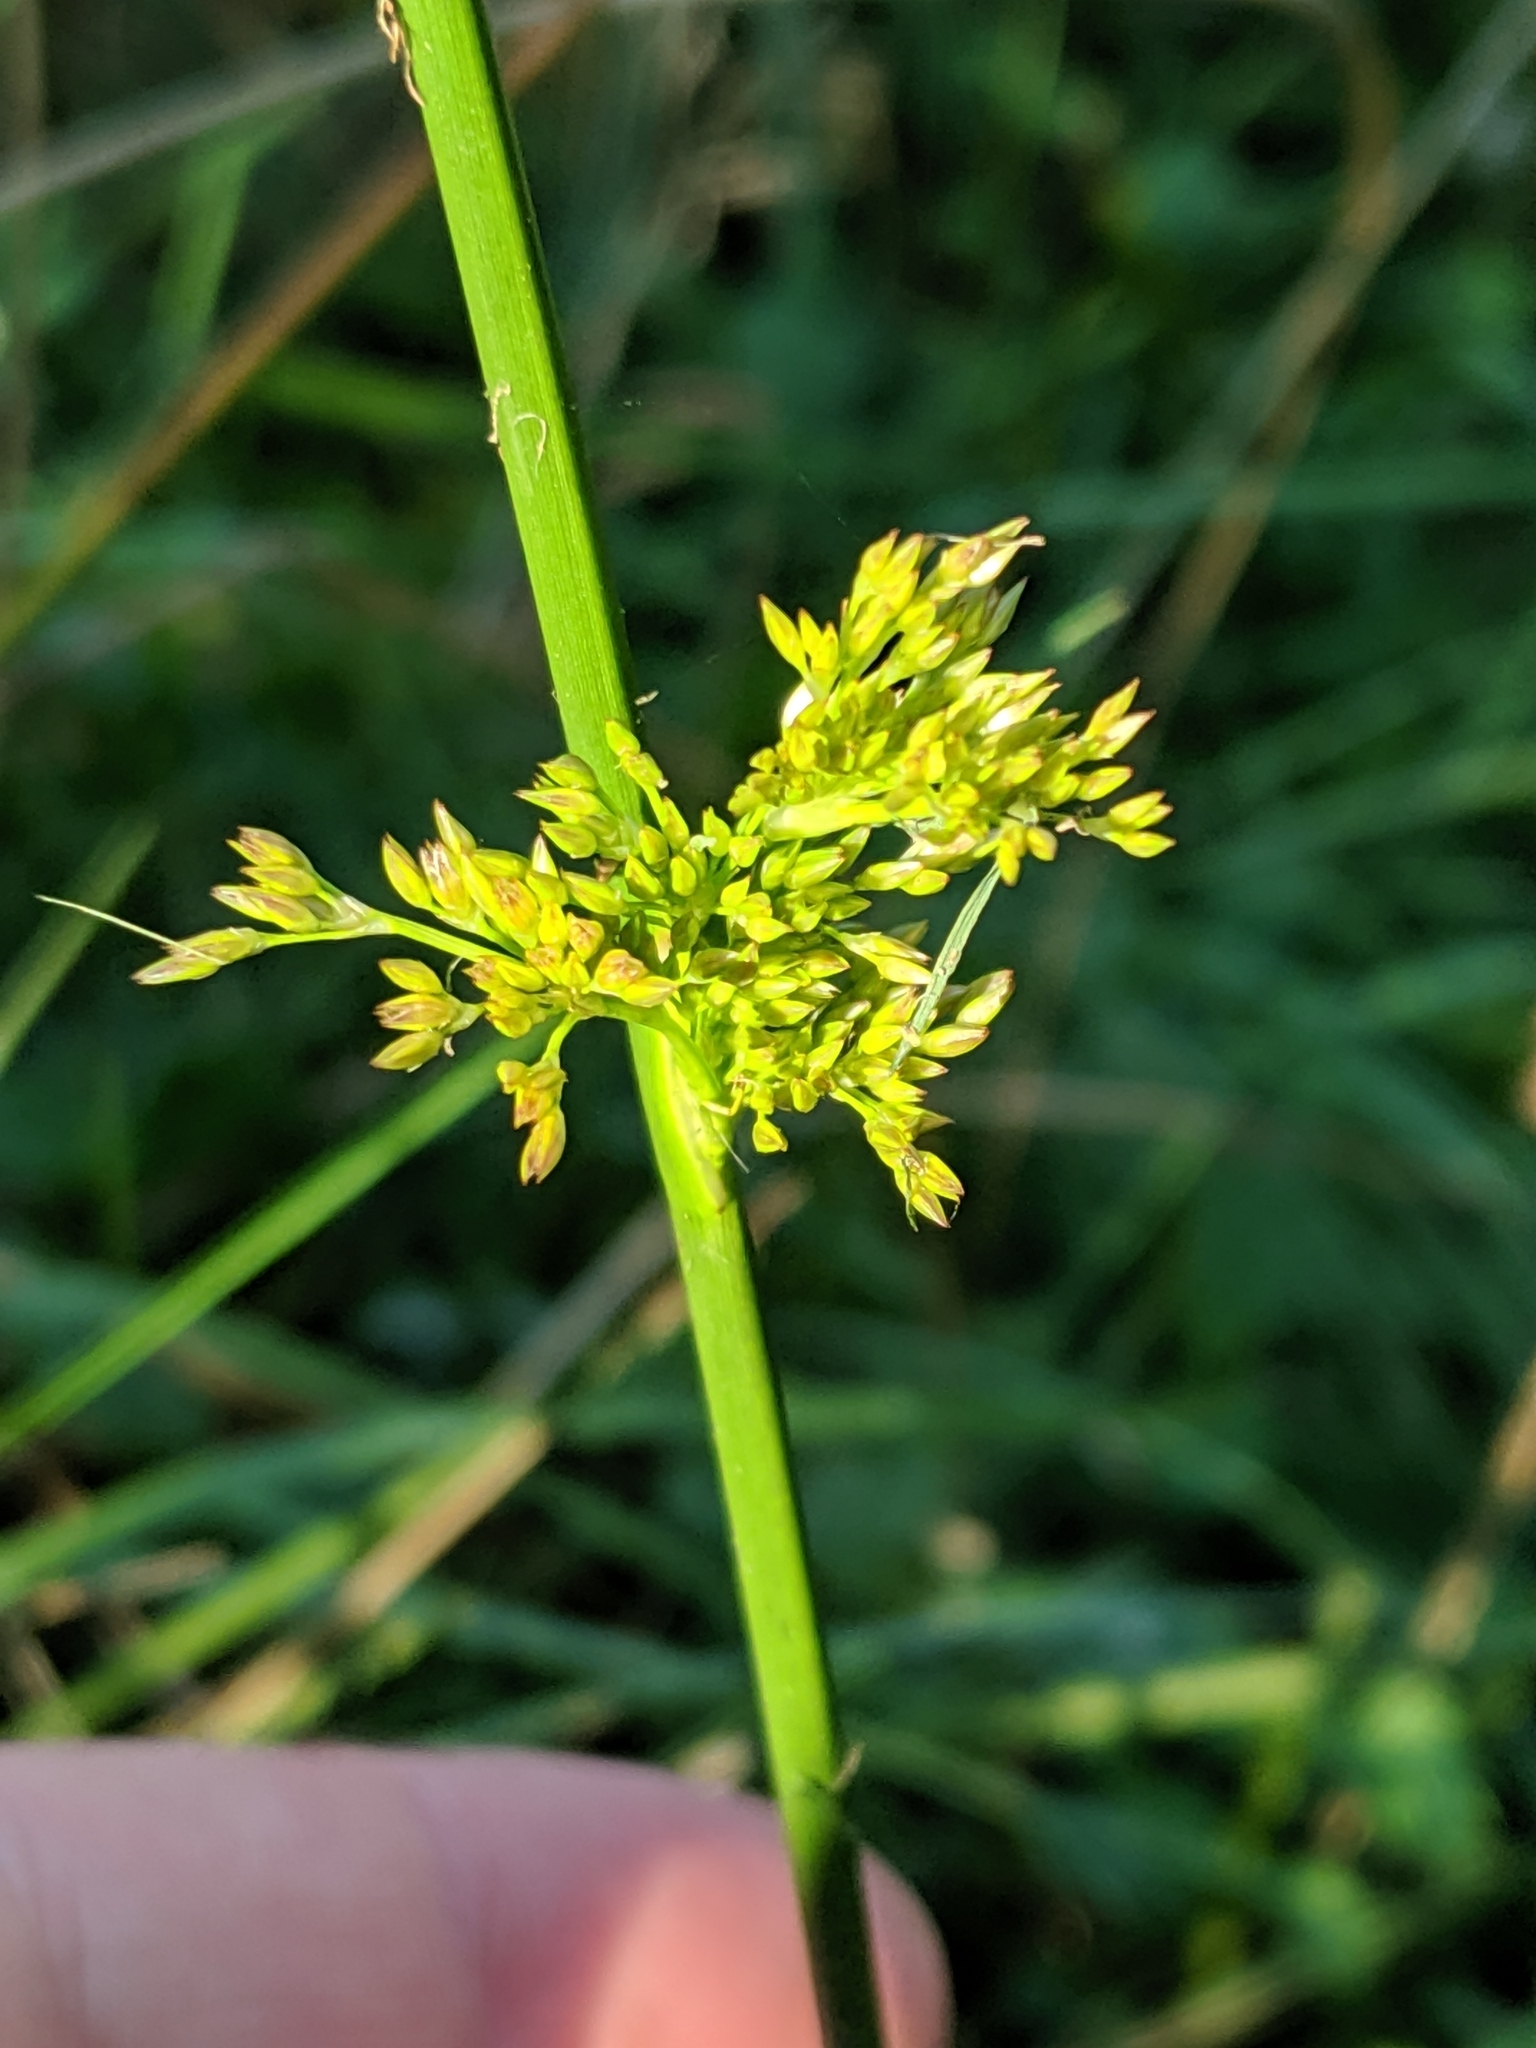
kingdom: Plantae
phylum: Tracheophyta
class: Liliopsida
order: Poales
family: Juncaceae
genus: Juncus
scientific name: Juncus effusus
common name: Soft rush
